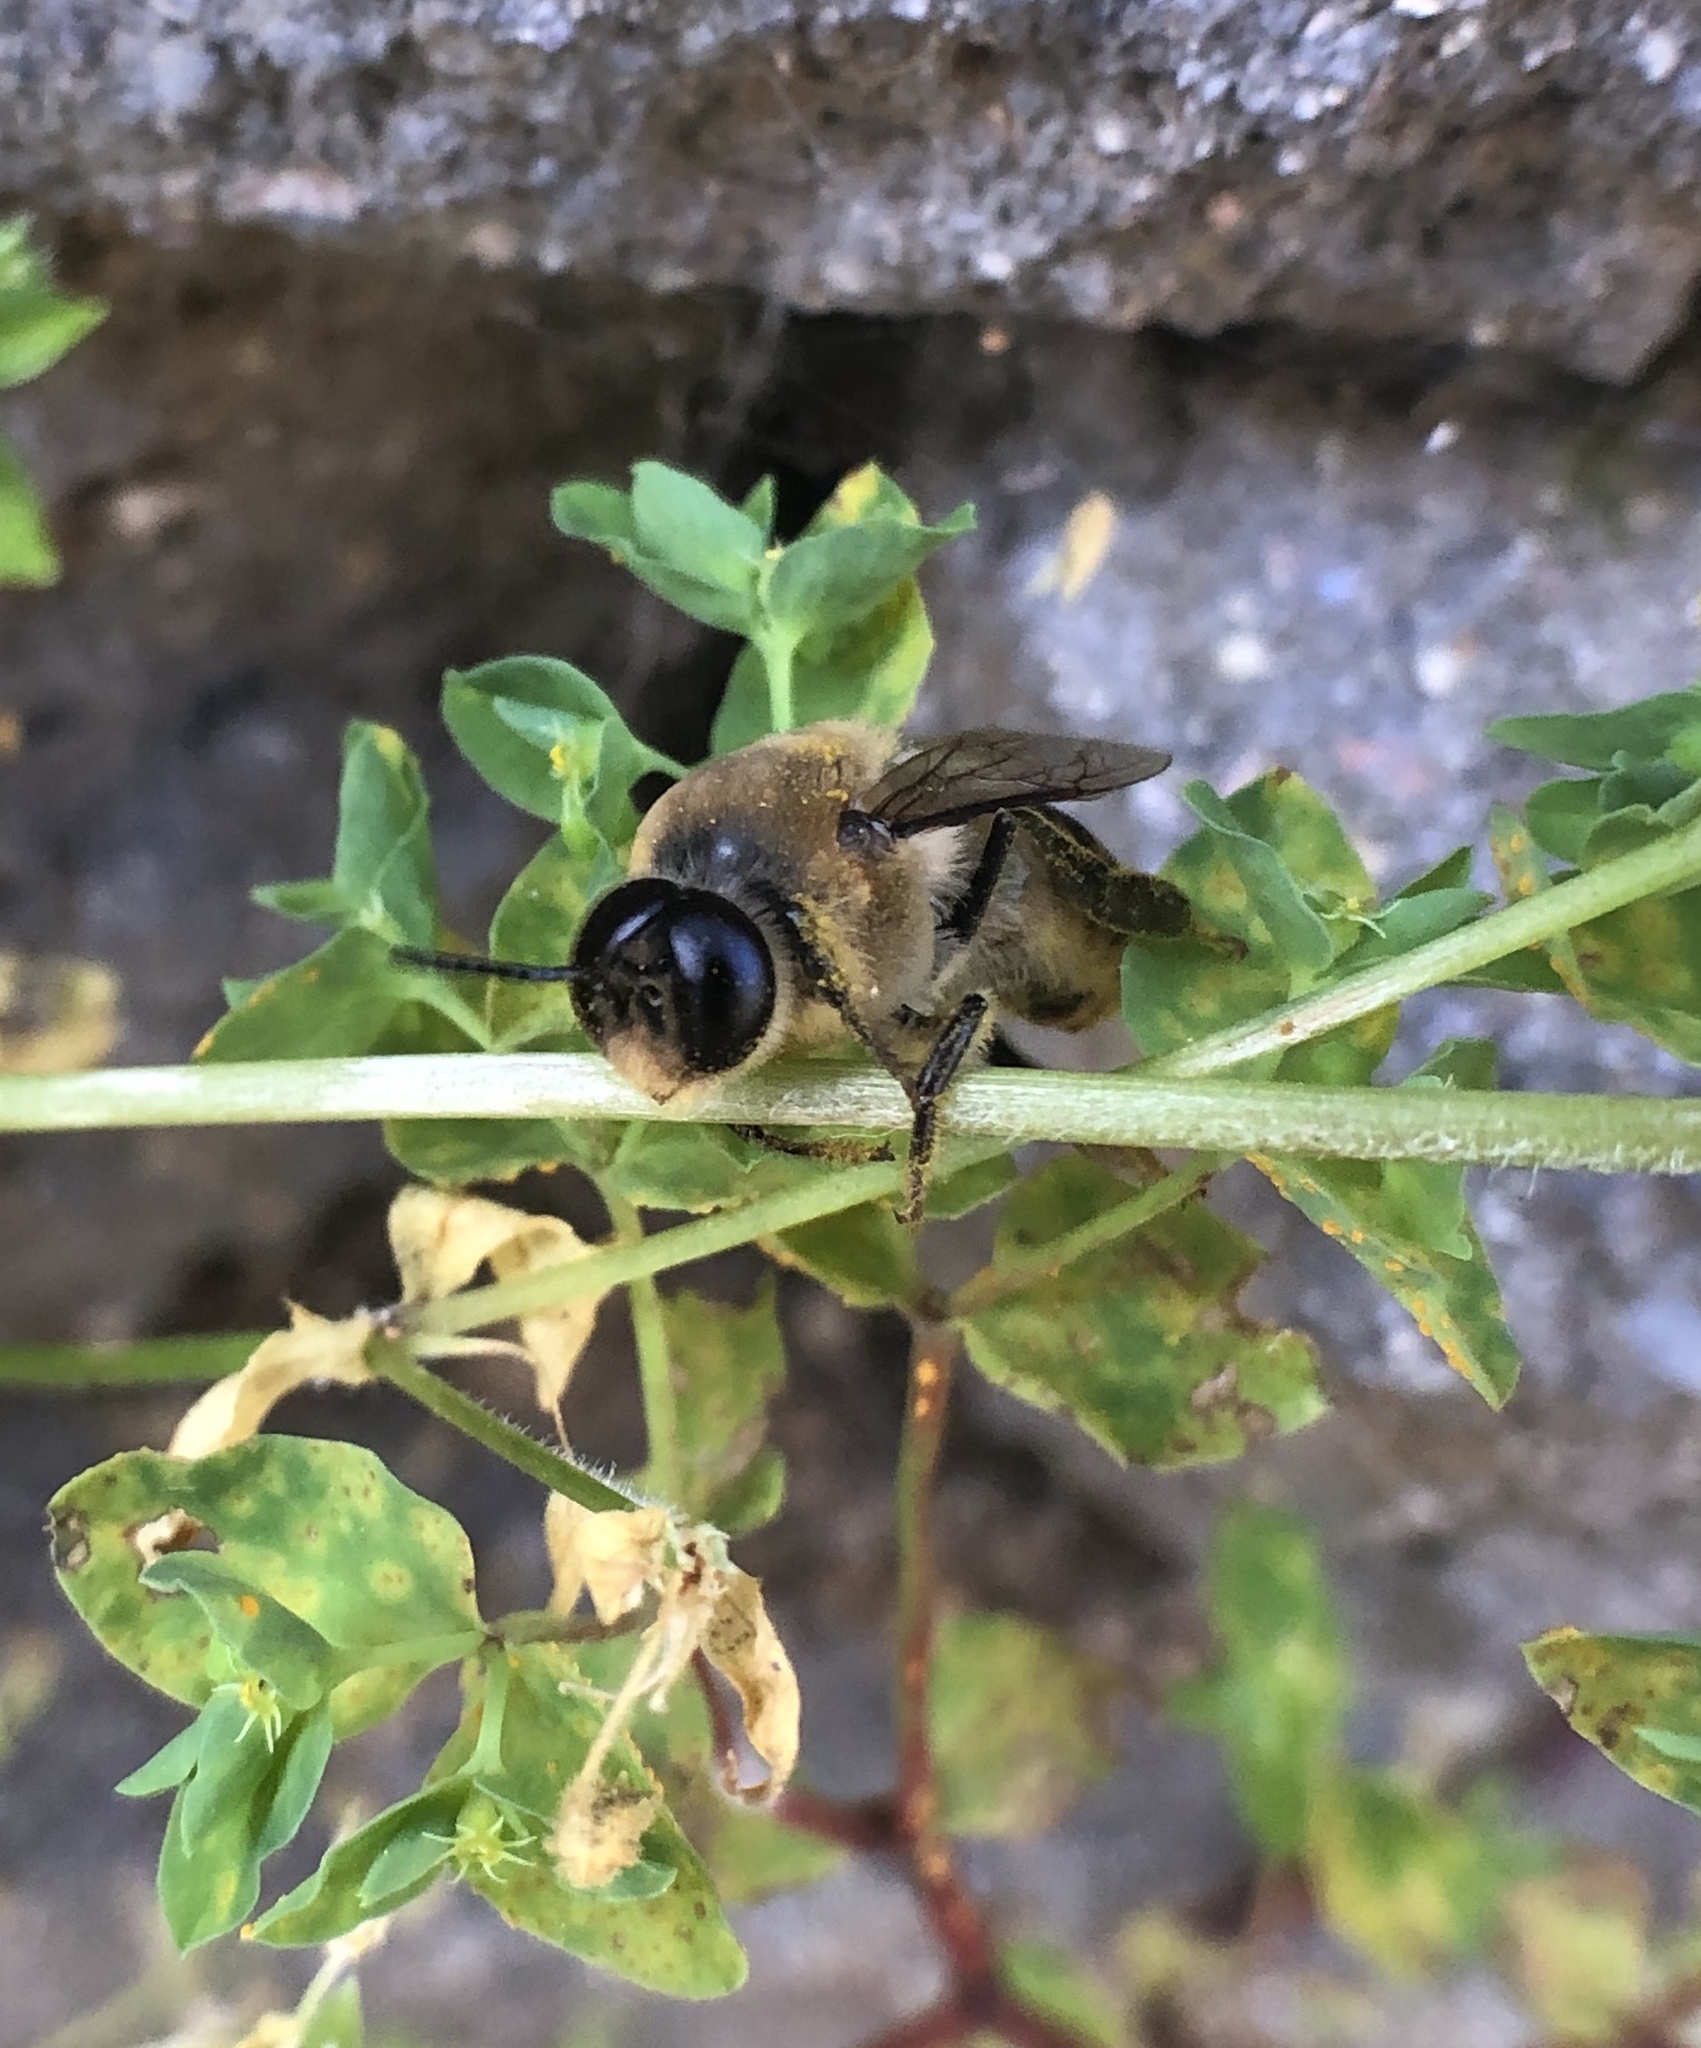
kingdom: Animalia
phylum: Arthropoda
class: Insecta
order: Hymenoptera
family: Apidae
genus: Apis
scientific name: Apis mellifera
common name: Honey bee
